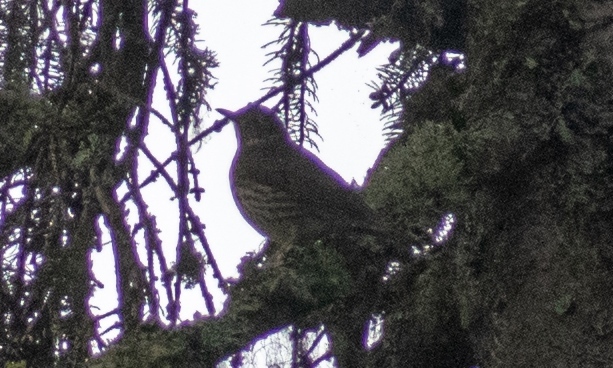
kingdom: Animalia
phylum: Chordata
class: Aves
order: Passeriformes
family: Turdidae
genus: Turdus
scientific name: Turdus philomelos
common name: Song thrush
